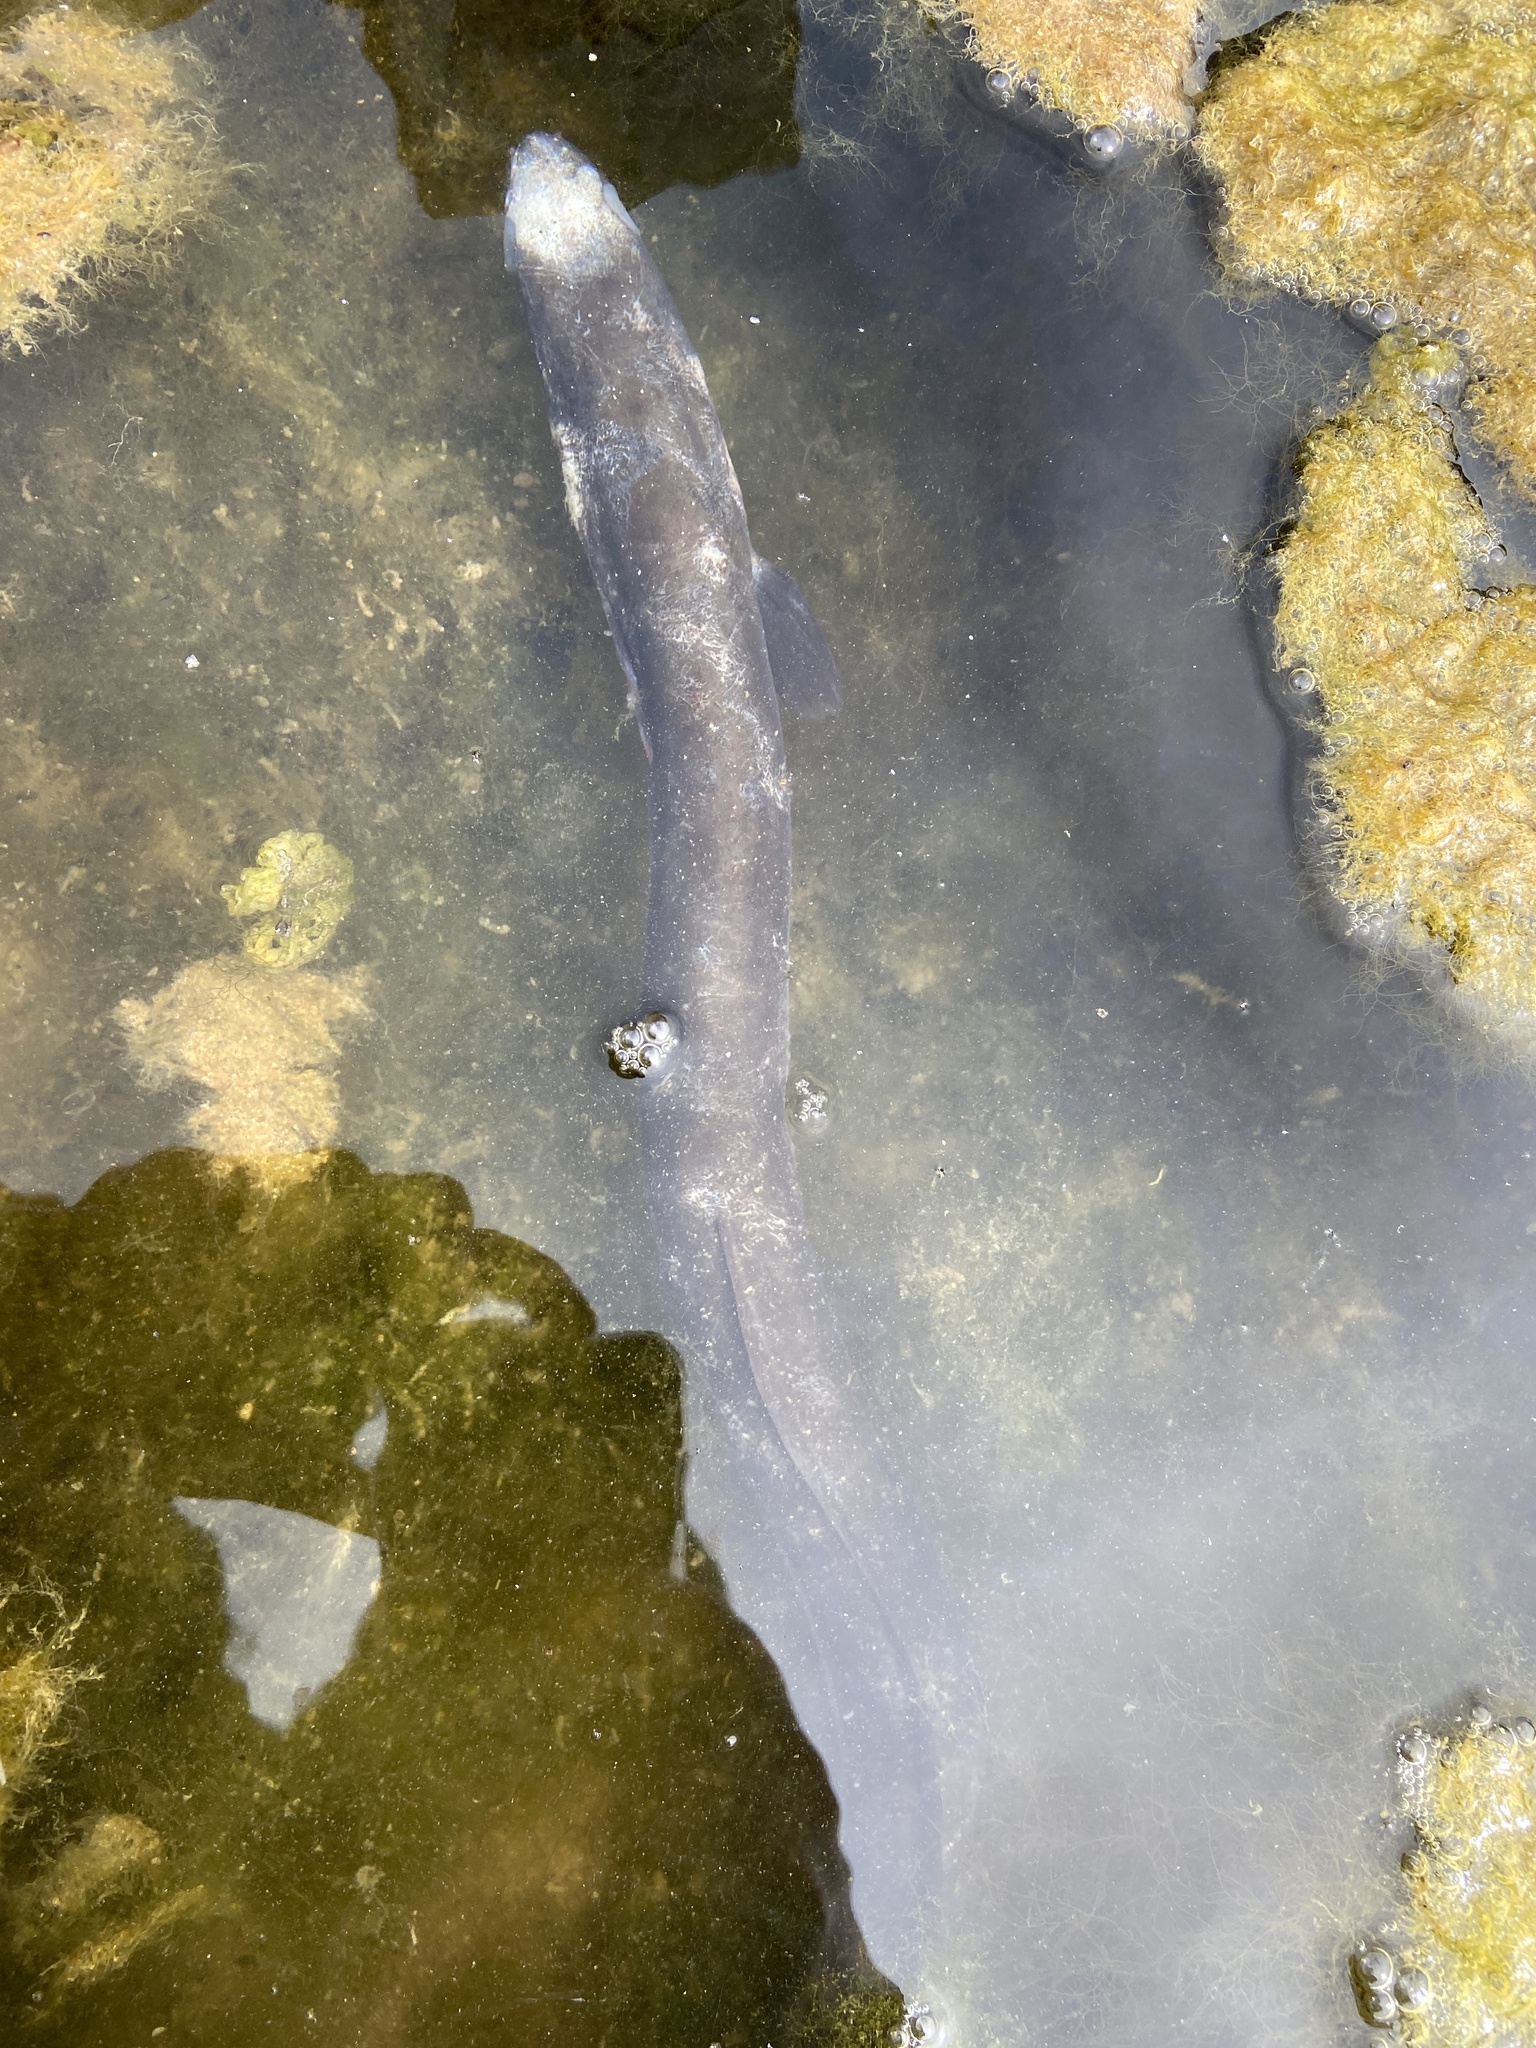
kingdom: Animalia
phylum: Chordata
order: Anguilliformes
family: Congridae
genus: Conger
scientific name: Conger conger
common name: Conger eel
